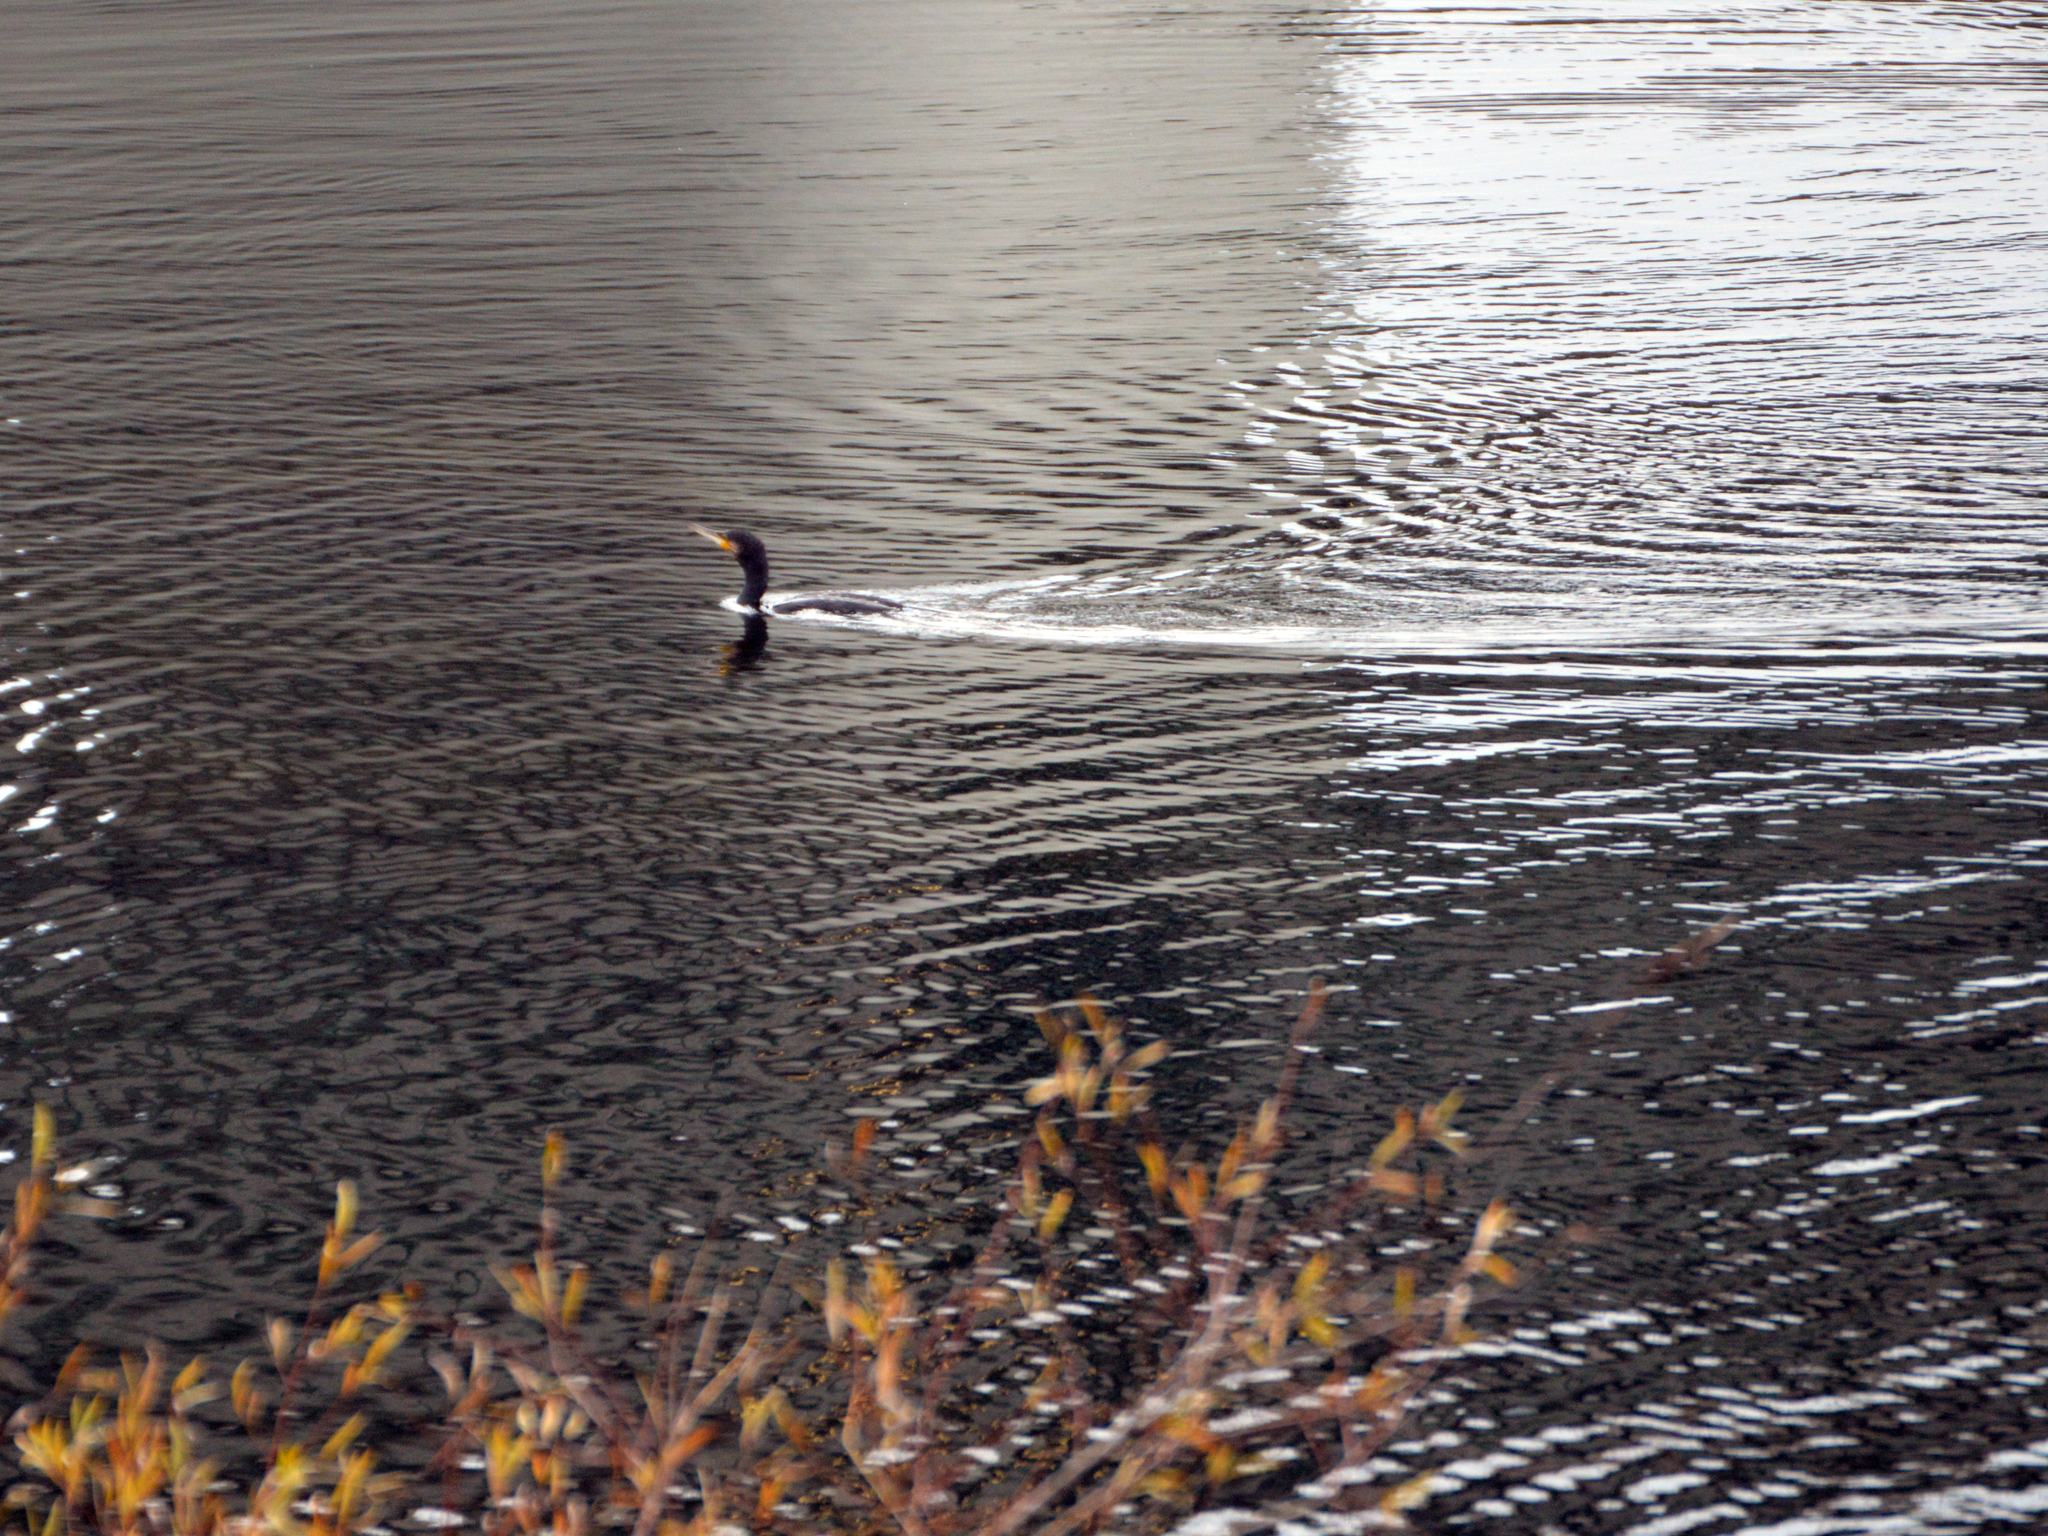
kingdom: Animalia
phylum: Chordata
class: Aves
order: Suliformes
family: Phalacrocoracidae
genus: Phalacrocorax
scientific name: Phalacrocorax carbo
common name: Great cormorant
